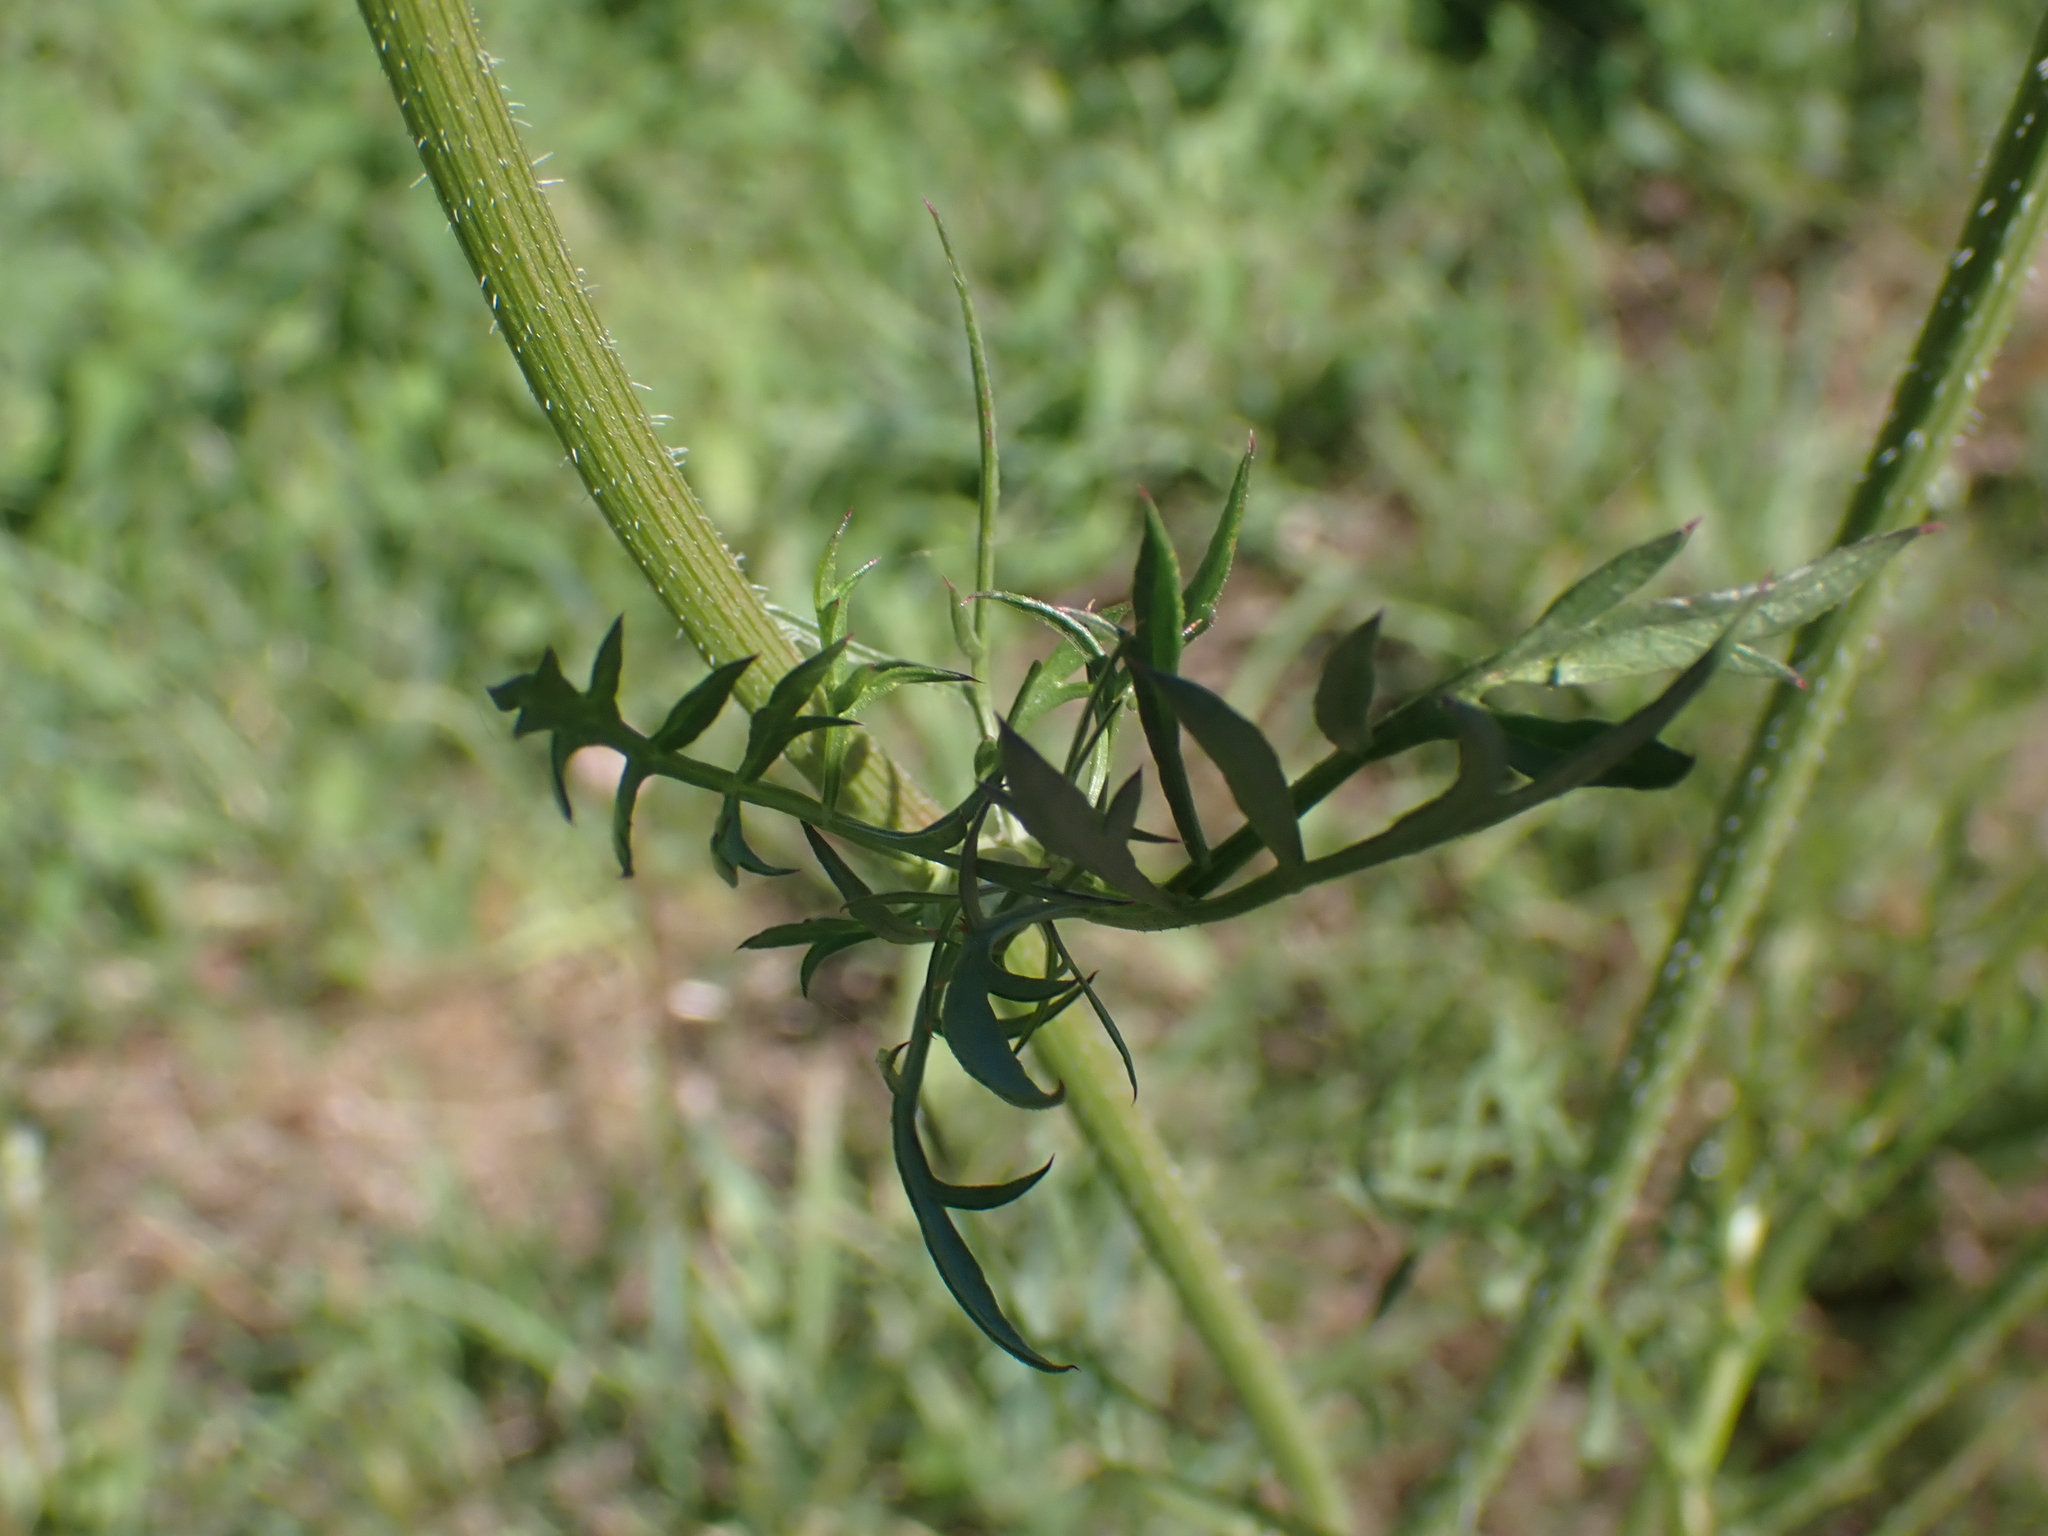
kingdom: Plantae
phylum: Tracheophyta
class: Magnoliopsida
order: Apiales
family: Apiaceae
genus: Daucus
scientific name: Daucus carota
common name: Wild carrot
